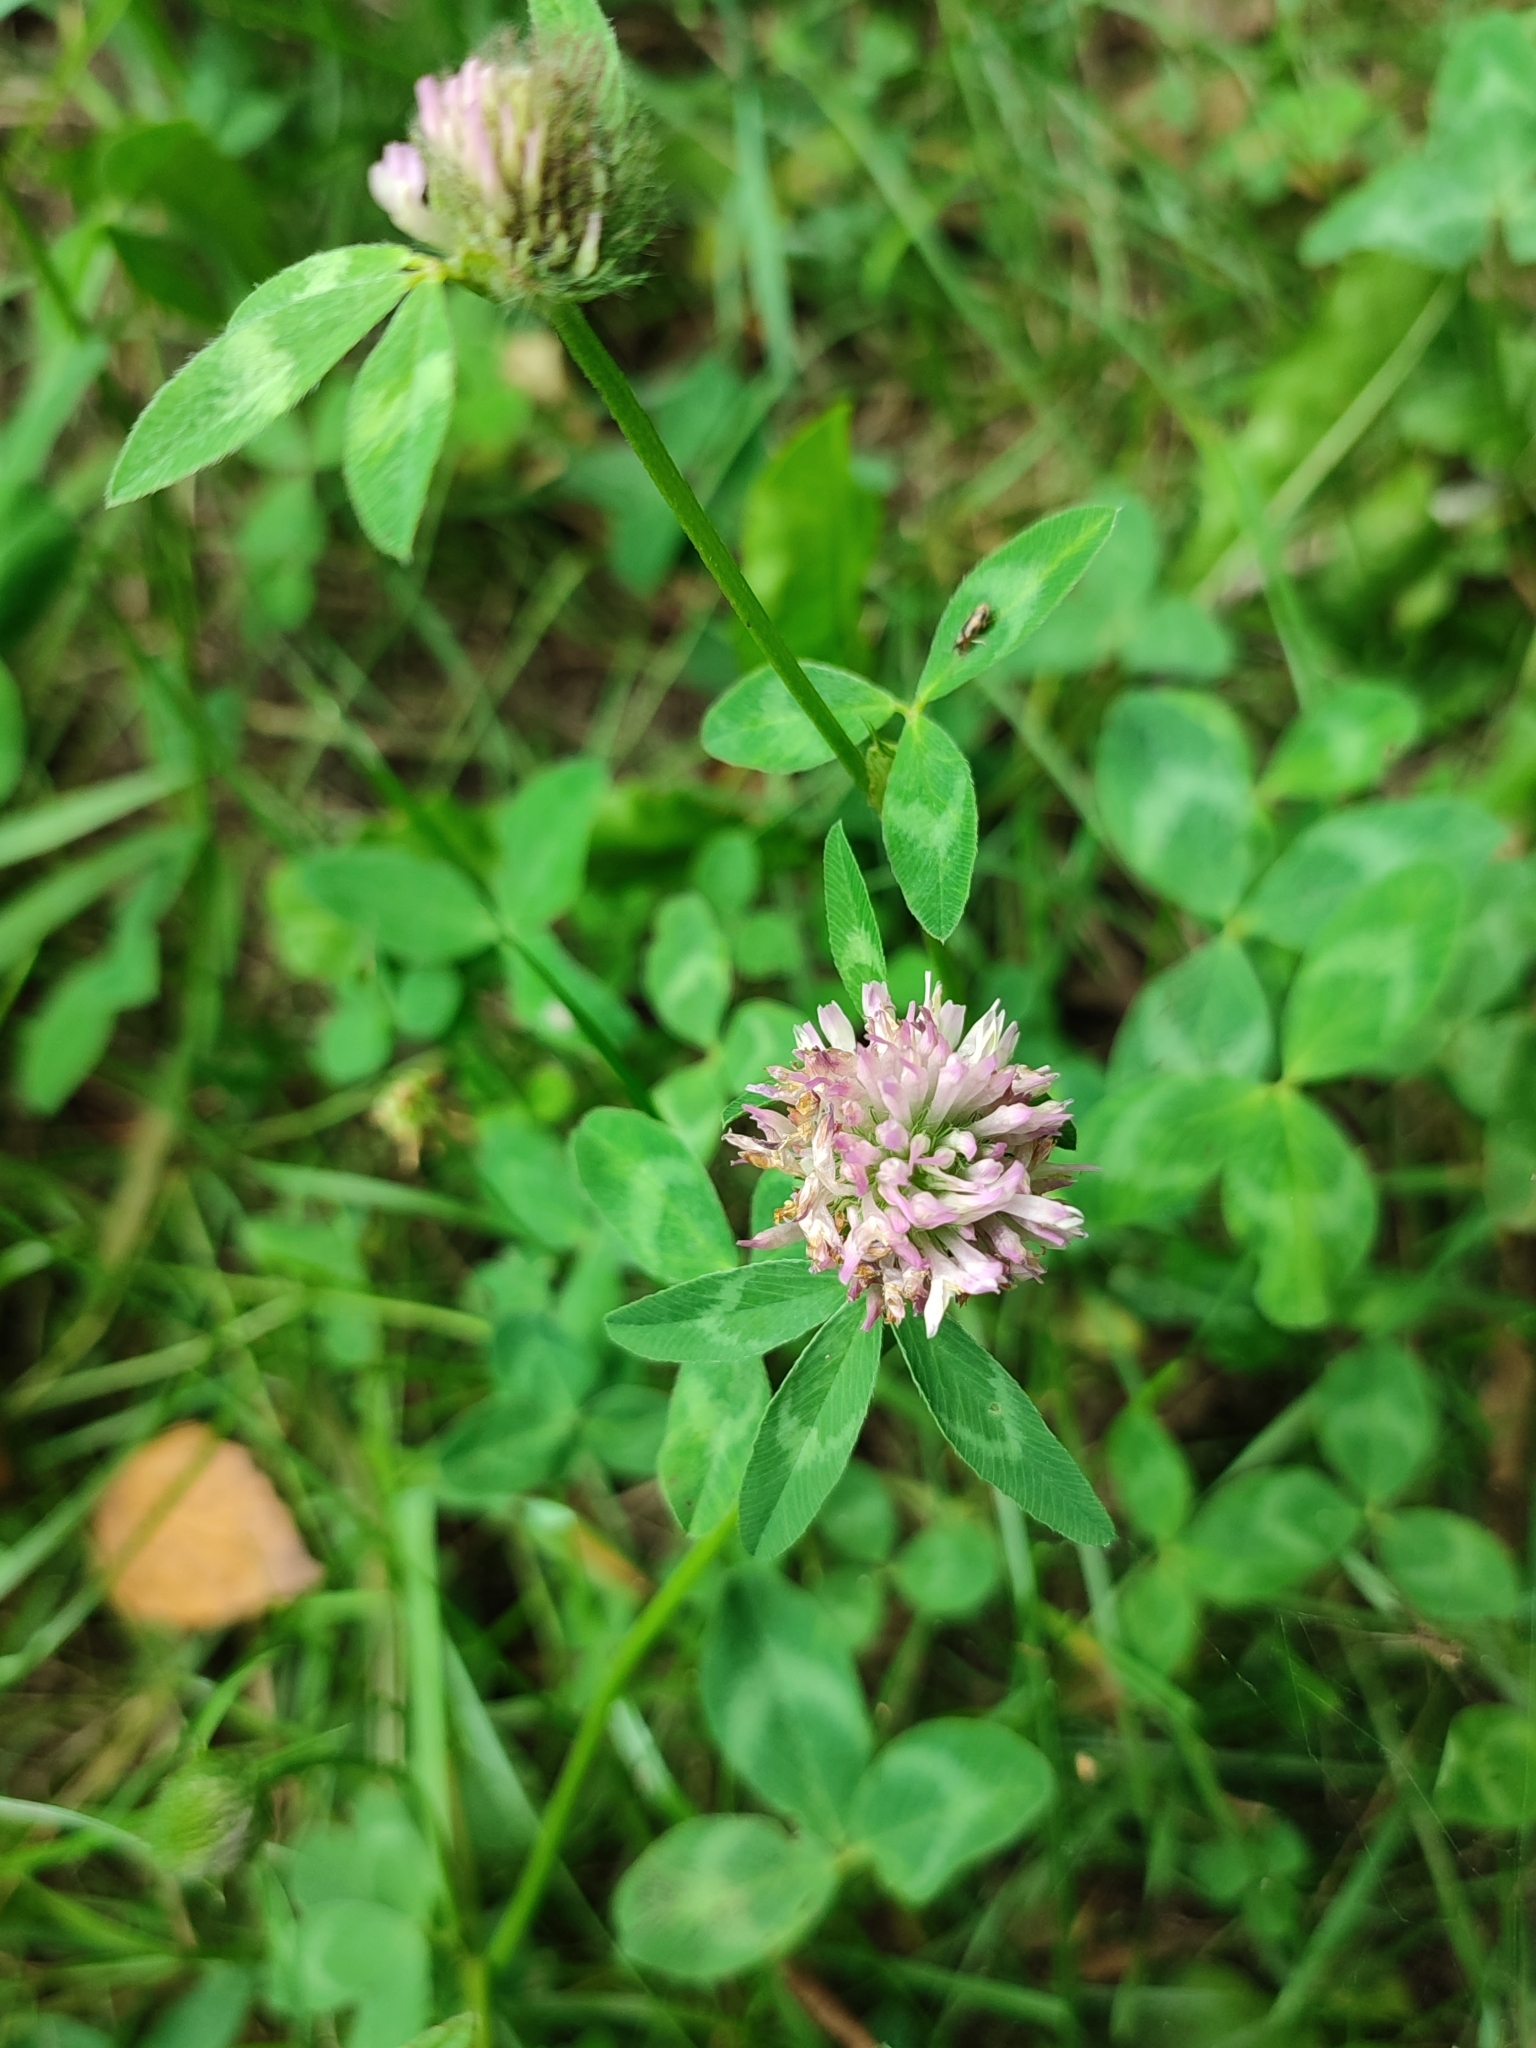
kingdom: Plantae
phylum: Tracheophyta
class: Magnoliopsida
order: Fabales
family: Fabaceae
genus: Trifolium
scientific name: Trifolium pratense
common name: Red clover
